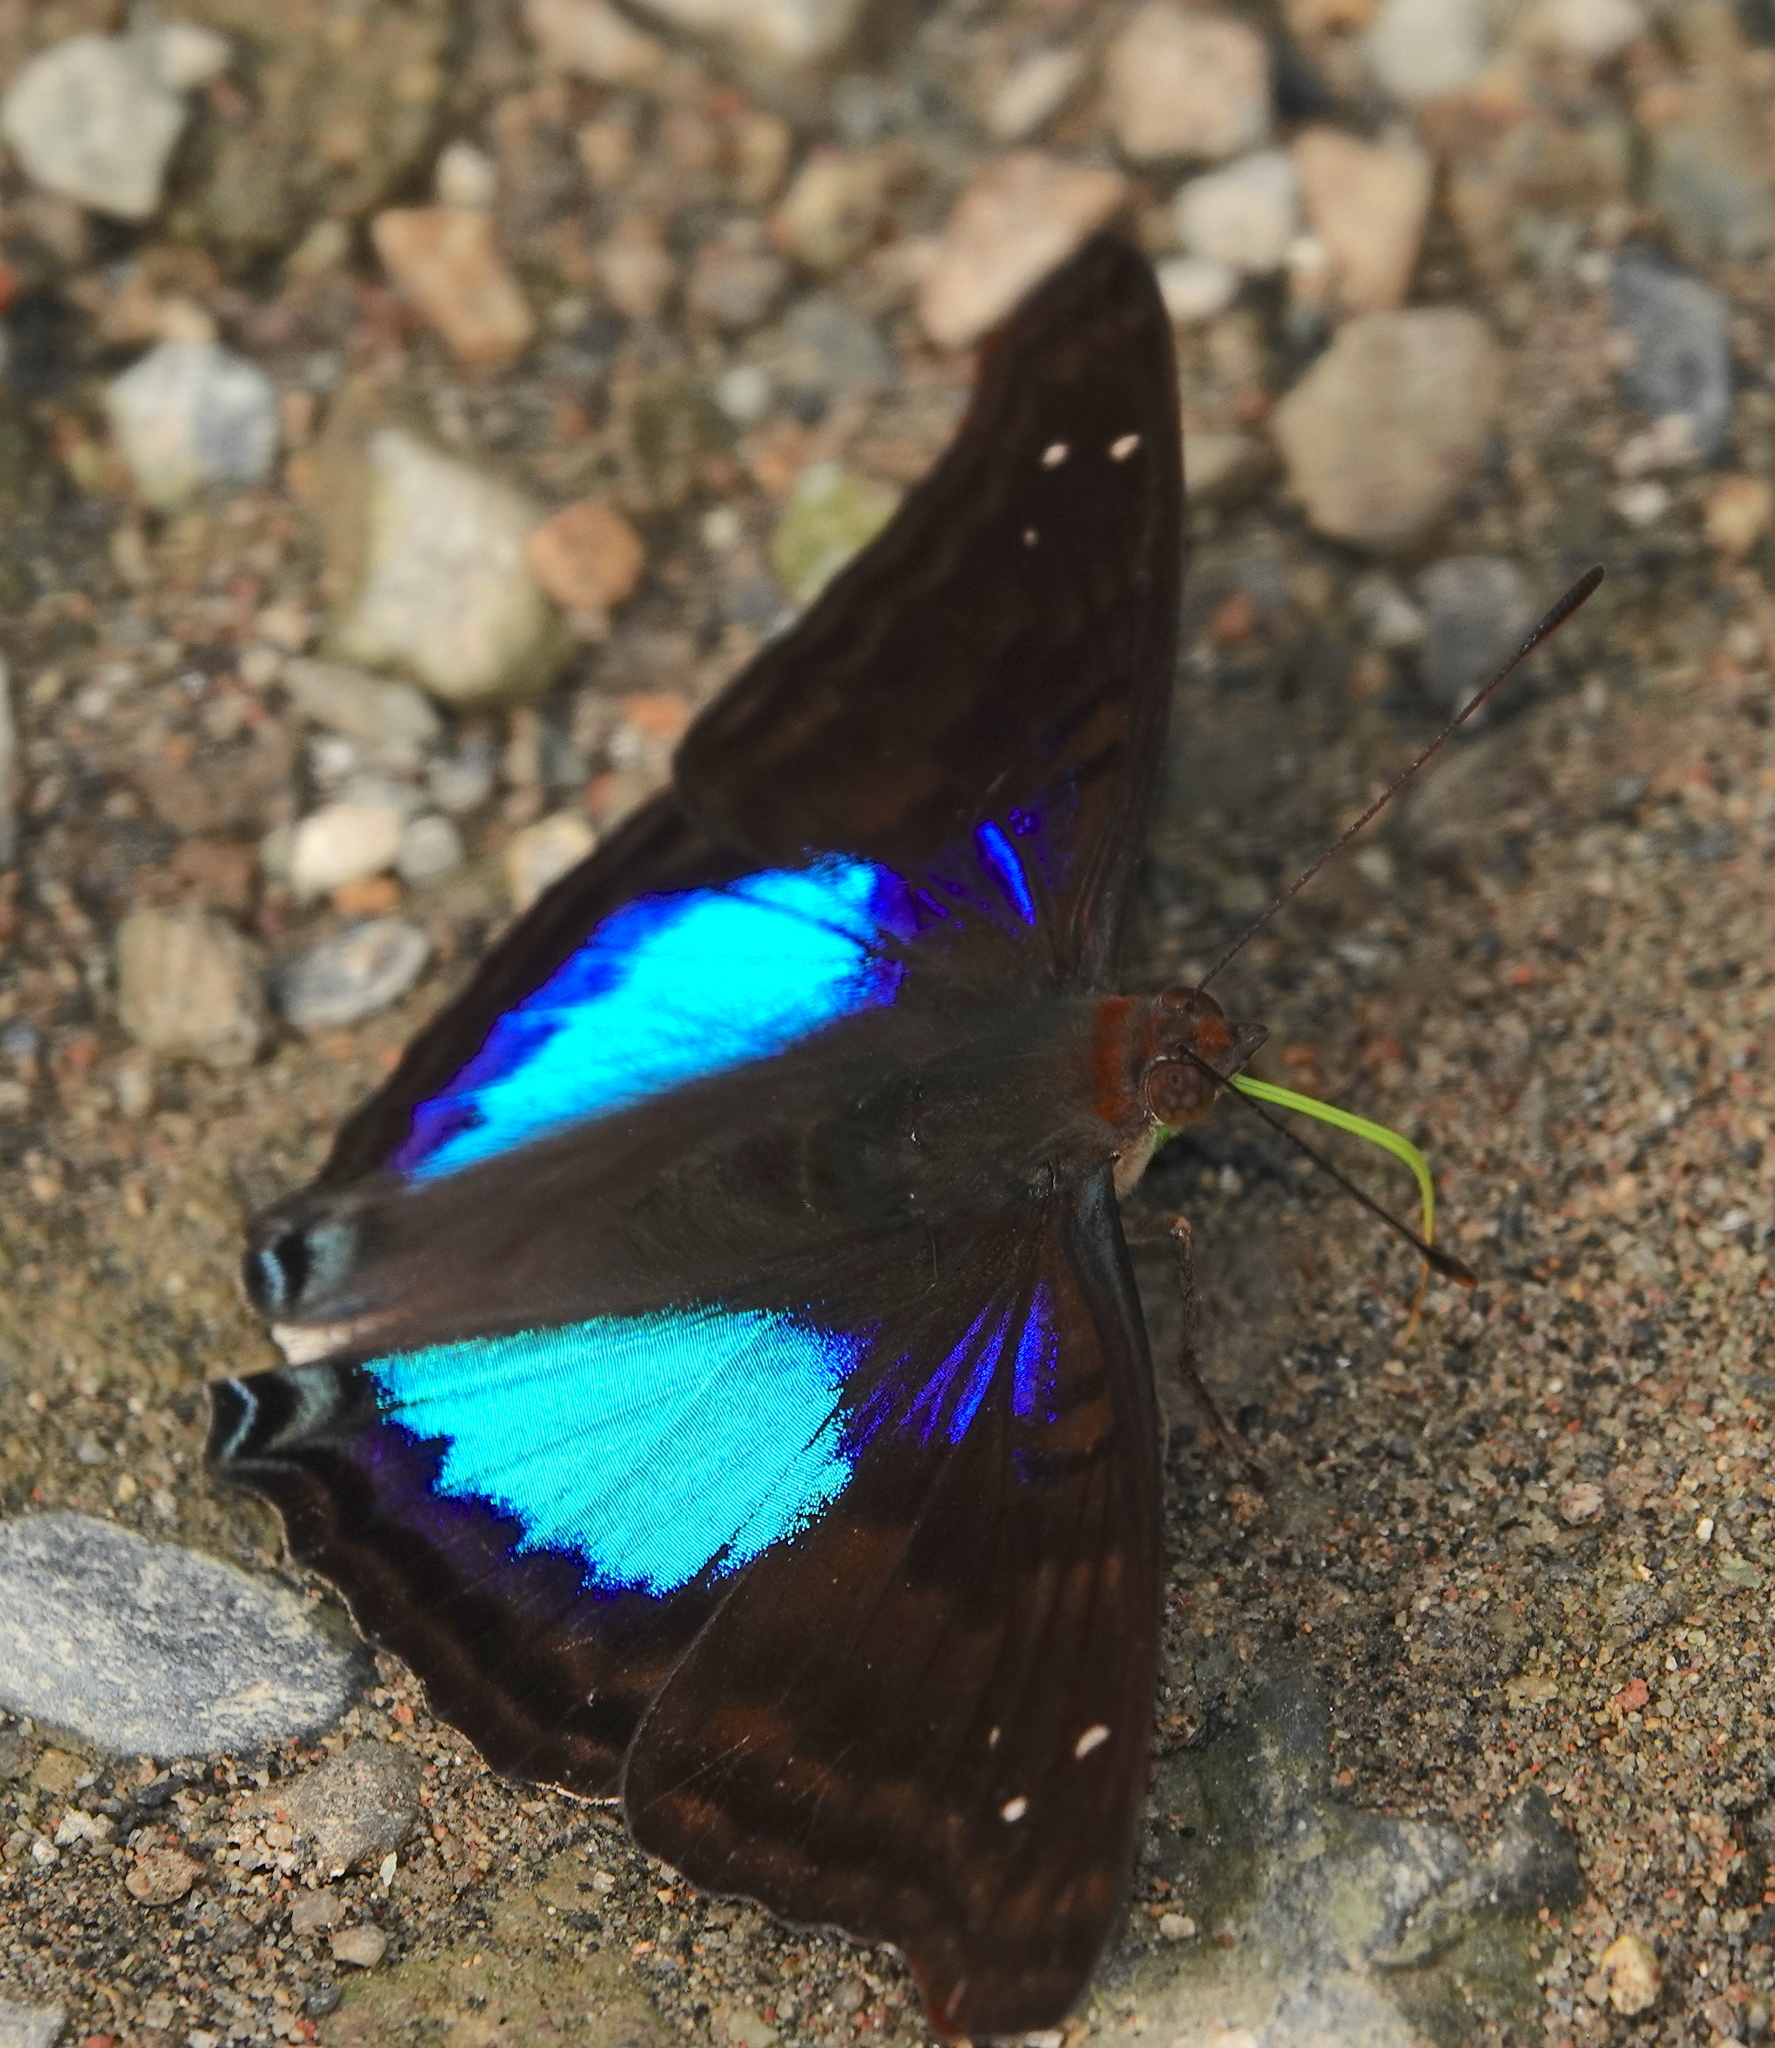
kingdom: Animalia
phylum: Arthropoda
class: Insecta
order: Lepidoptera
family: Nymphalidae
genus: Doxocopa
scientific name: Doxocopa cyane
